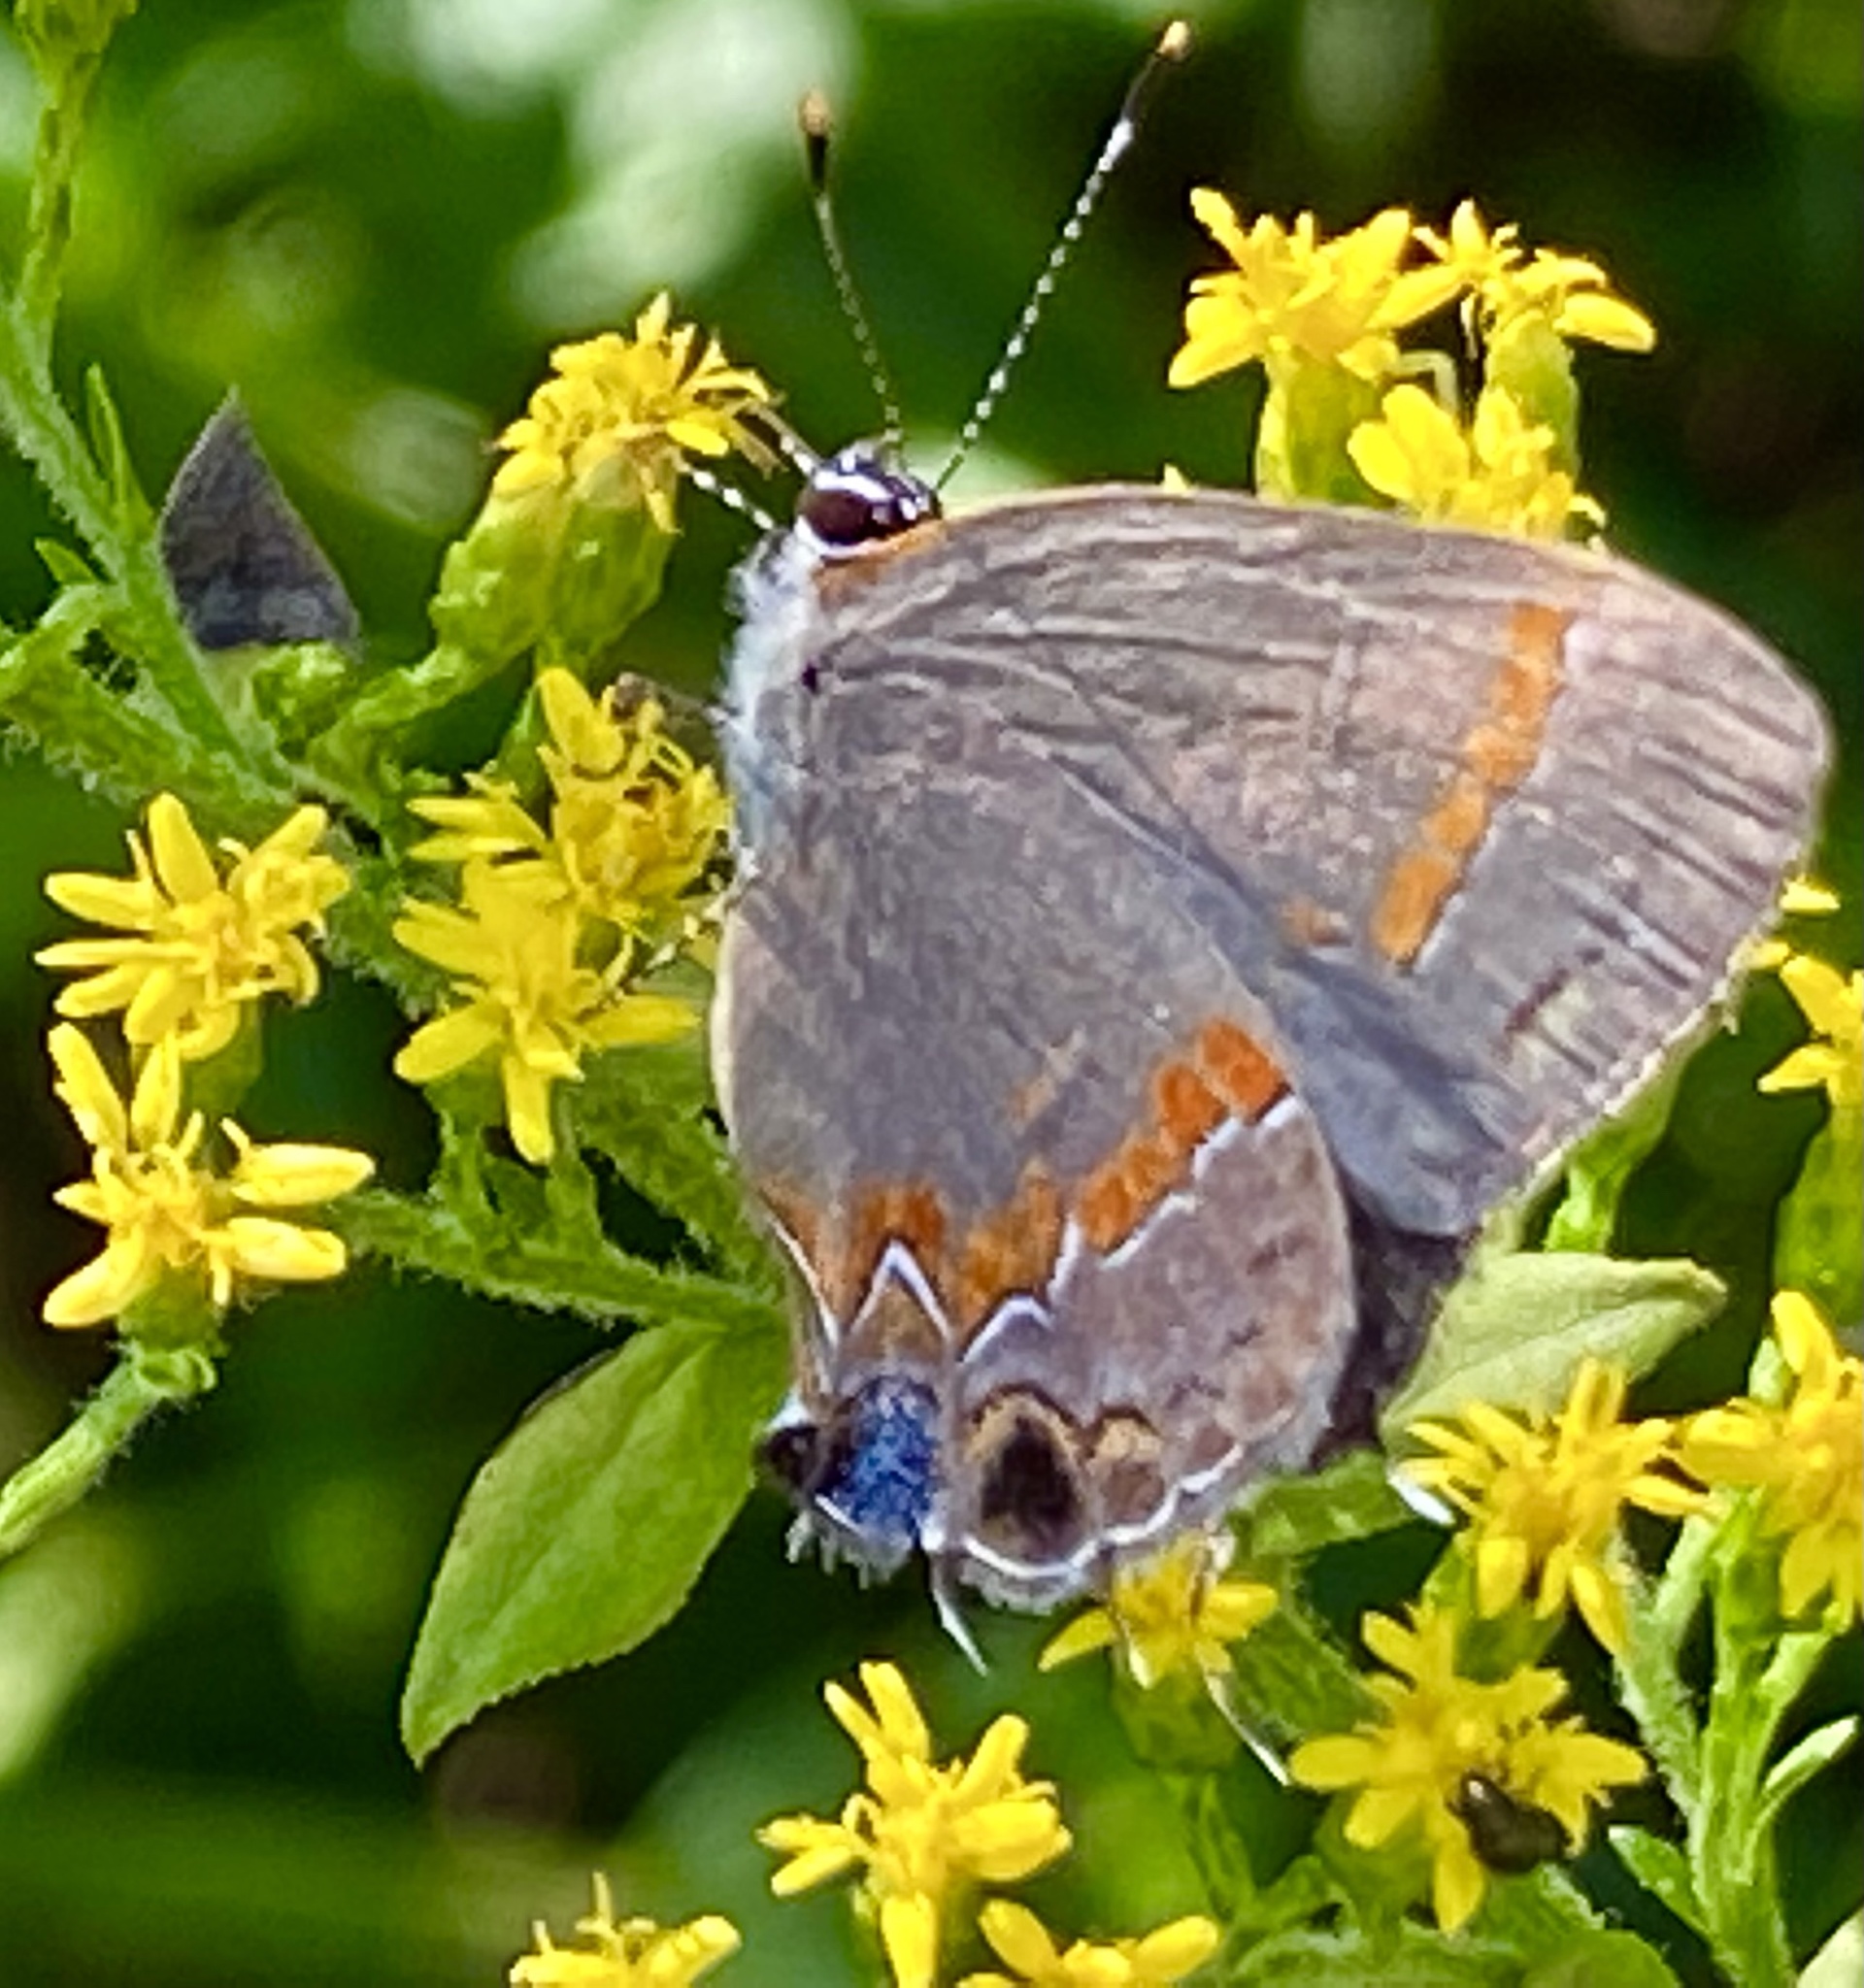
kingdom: Animalia
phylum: Arthropoda
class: Insecta
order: Lepidoptera
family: Lycaenidae
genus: Calycopis
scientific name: Calycopis cecrops
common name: Red-banded hairstreak
